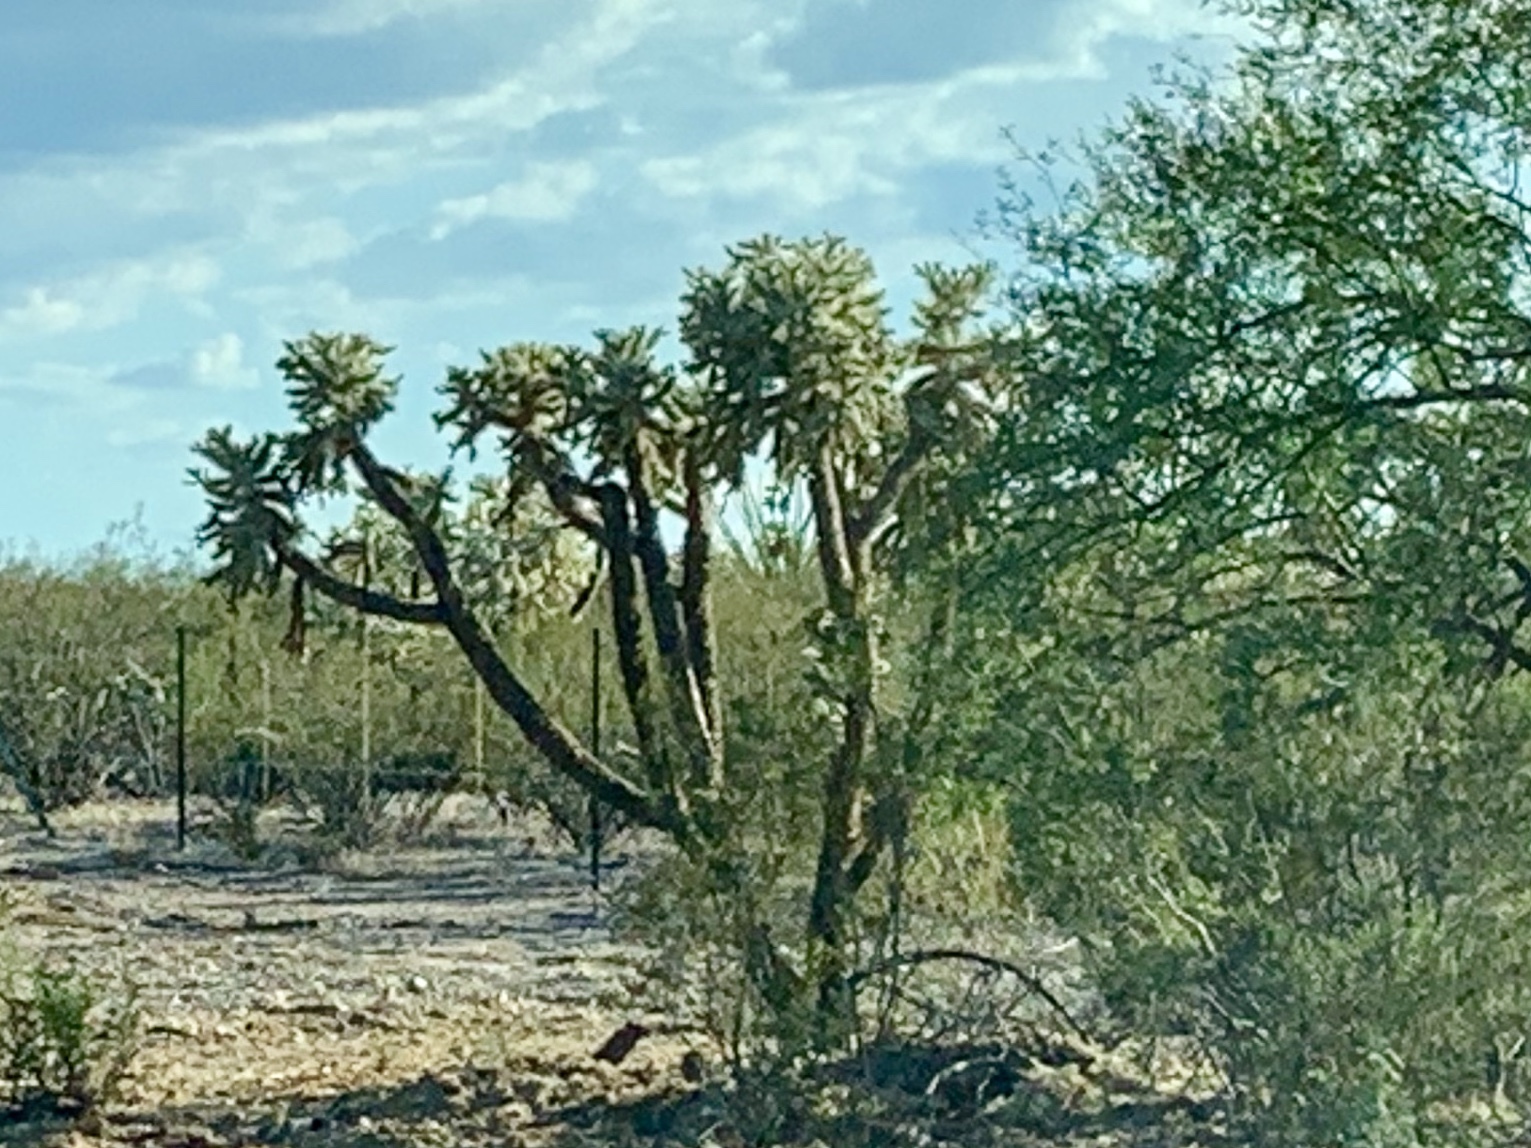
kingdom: Plantae
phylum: Tracheophyta
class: Magnoliopsida
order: Caryophyllales
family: Cactaceae
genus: Cylindropuntia
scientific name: Cylindropuntia fulgida
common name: Jumping cholla
